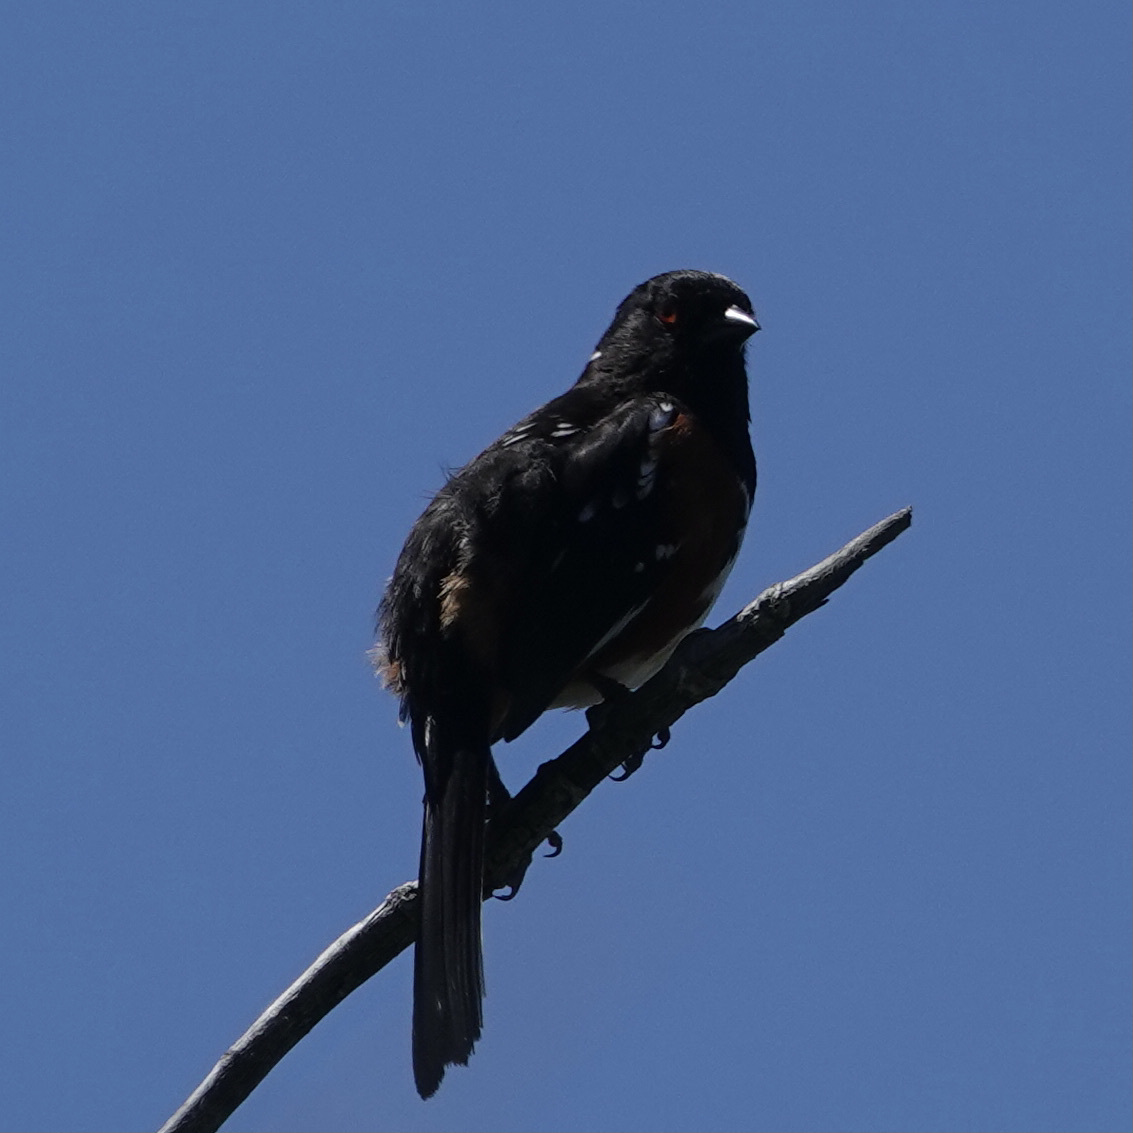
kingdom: Animalia
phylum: Chordata
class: Aves
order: Passeriformes
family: Passerellidae
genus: Pipilo
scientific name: Pipilo maculatus
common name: Spotted towhee
